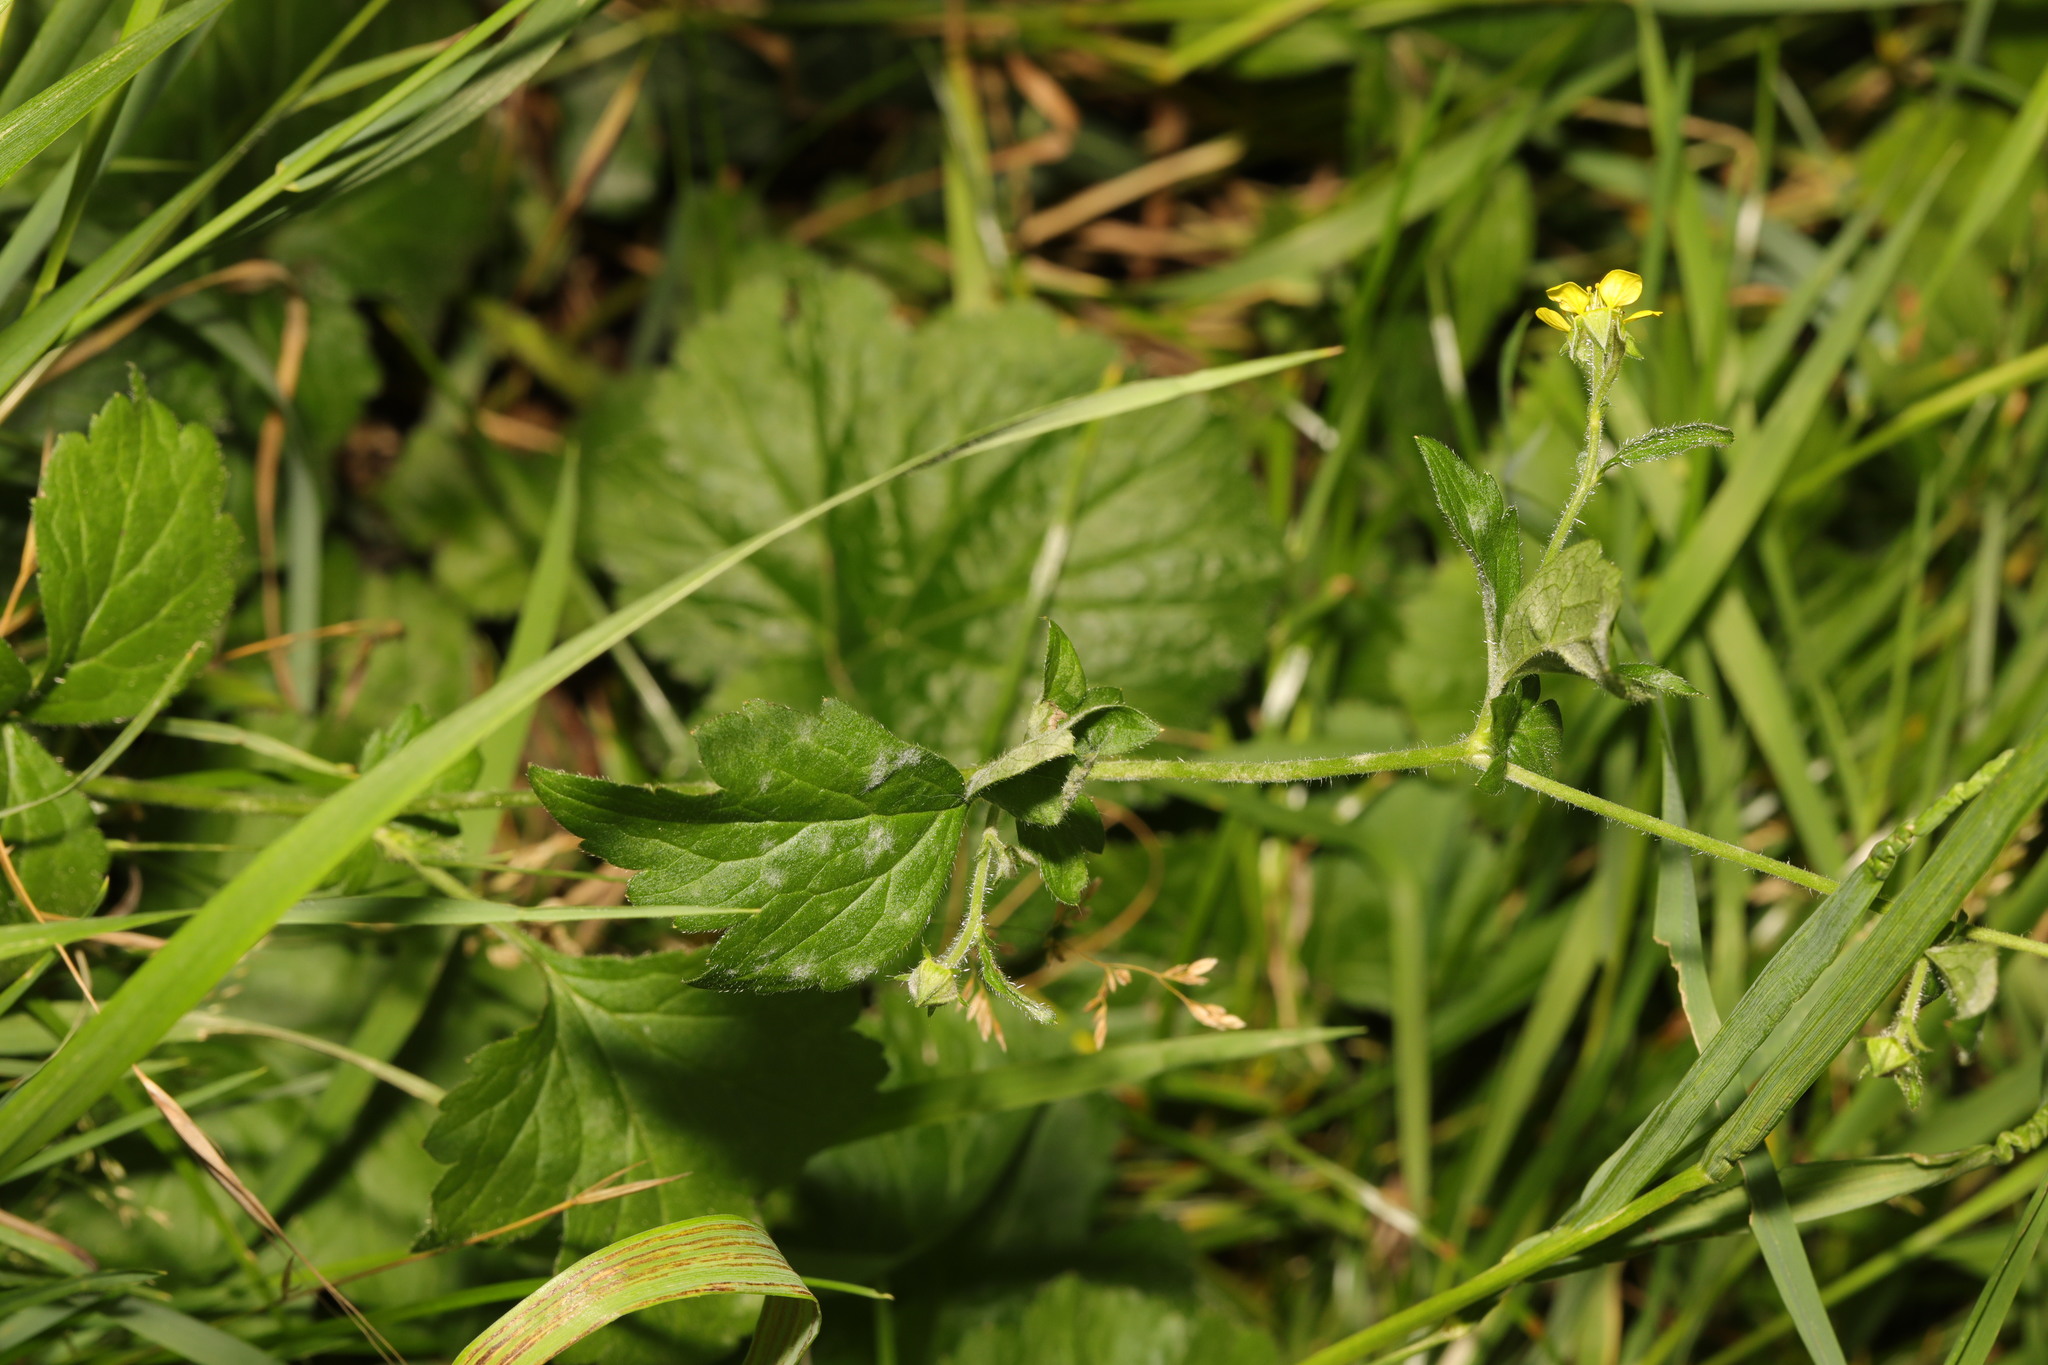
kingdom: Plantae
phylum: Tracheophyta
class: Magnoliopsida
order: Rosales
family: Rosaceae
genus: Geum
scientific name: Geum urbanum
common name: Wood avens
